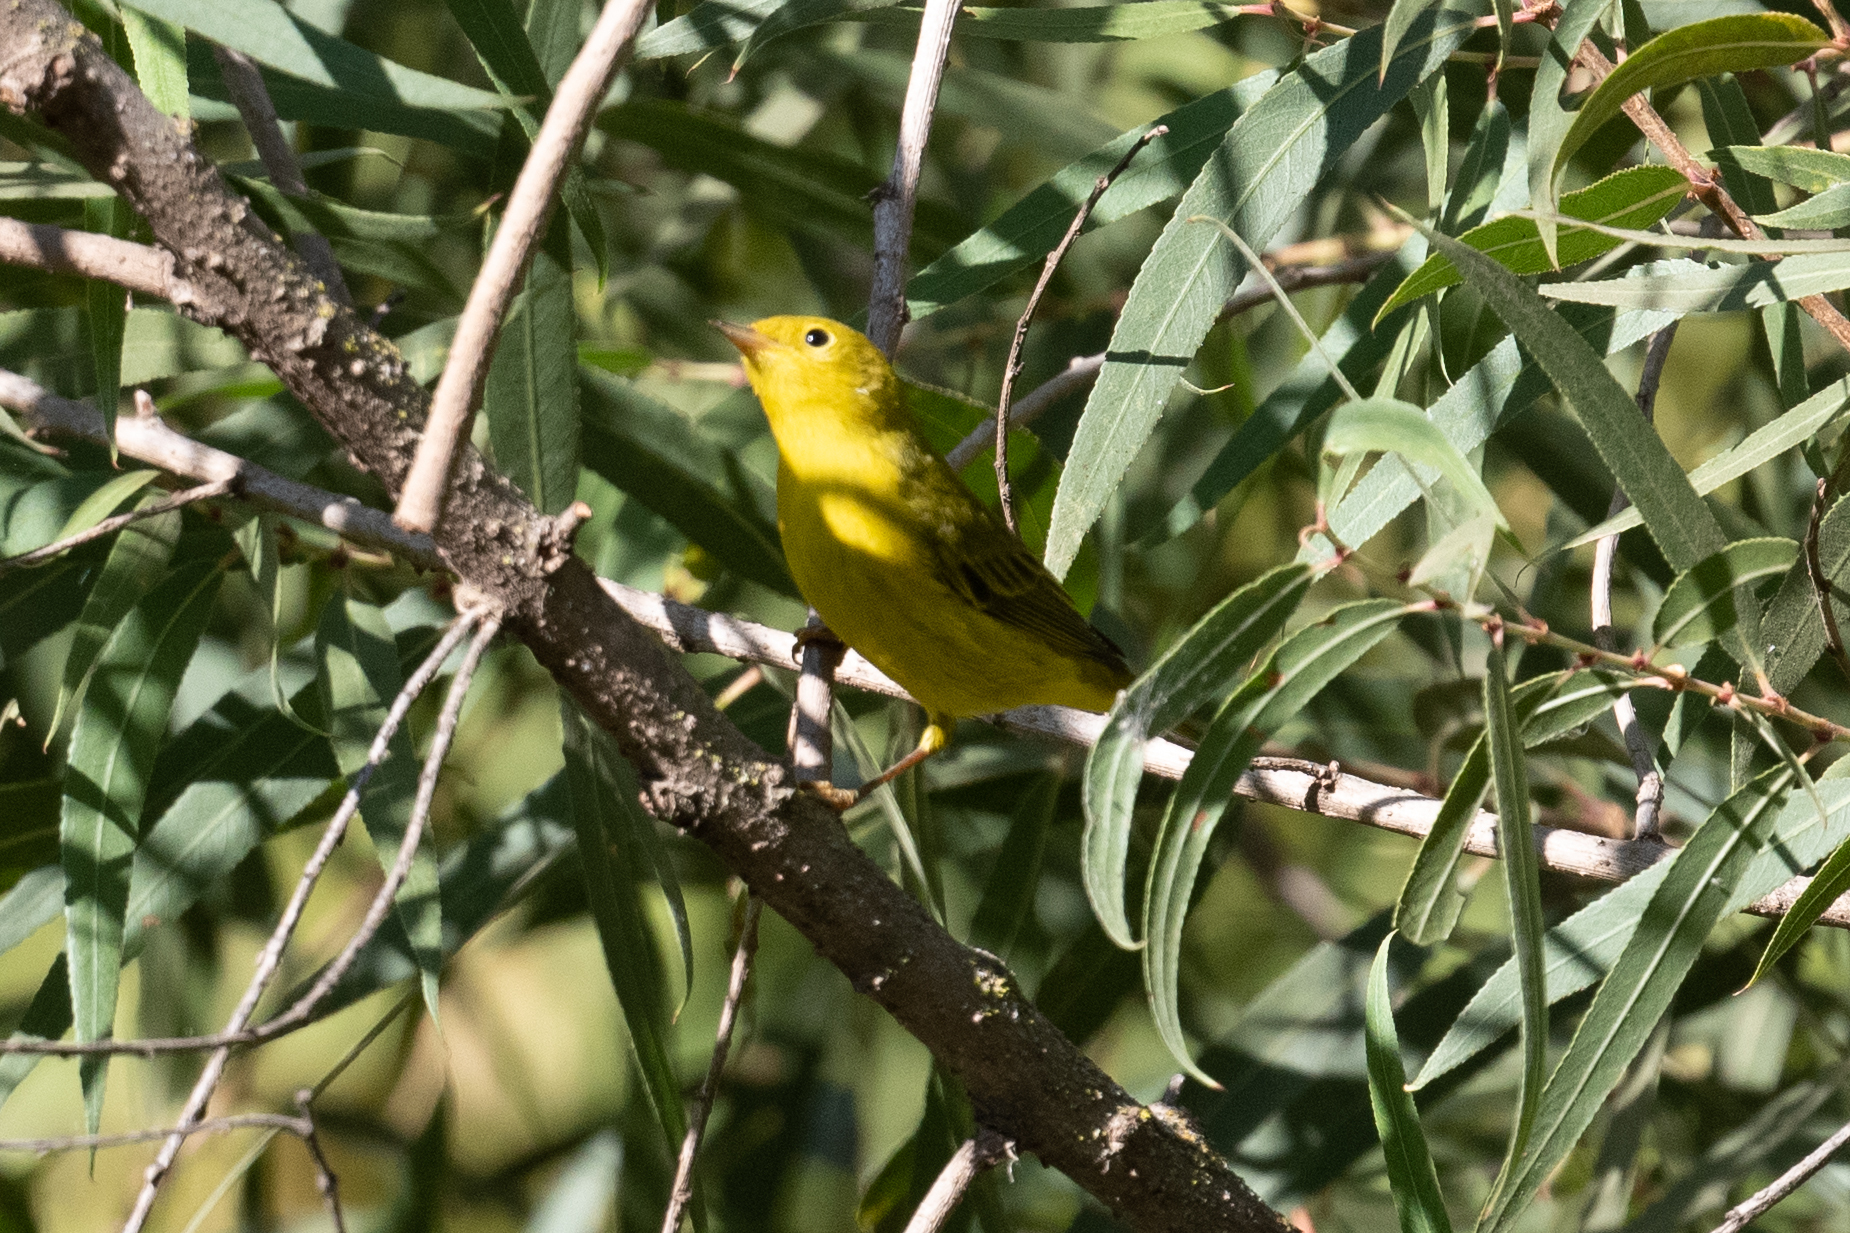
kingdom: Animalia
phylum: Chordata
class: Aves
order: Passeriformes
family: Parulidae
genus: Setophaga
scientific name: Setophaga petechia
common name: Yellow warbler
